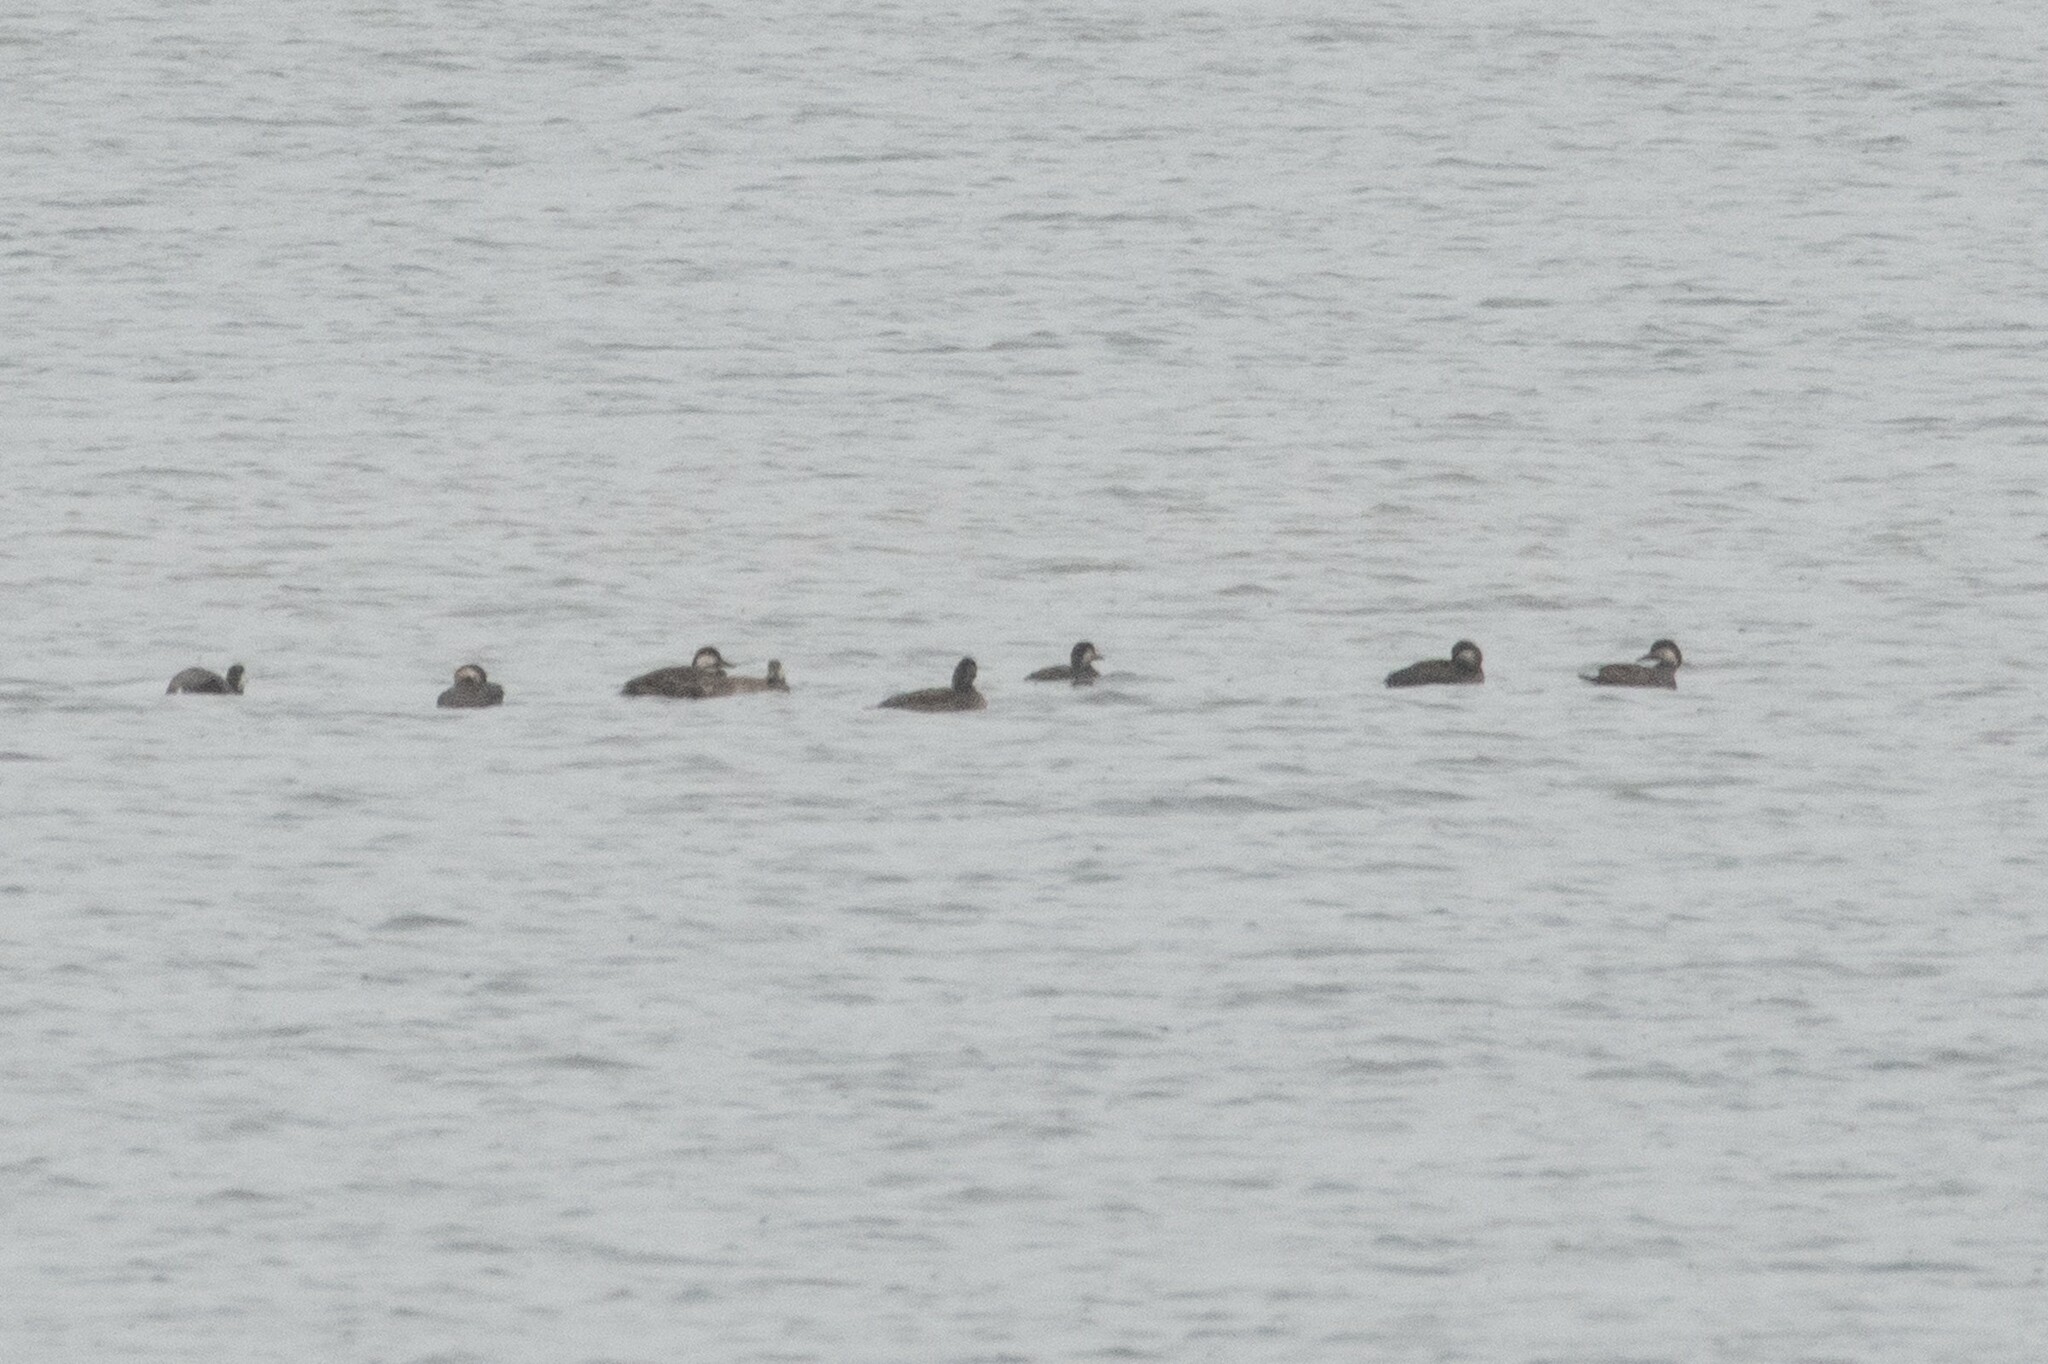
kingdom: Animalia
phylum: Chordata
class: Aves
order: Anseriformes
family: Anatidae
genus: Melanitta
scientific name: Melanitta americana
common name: Black scoter
